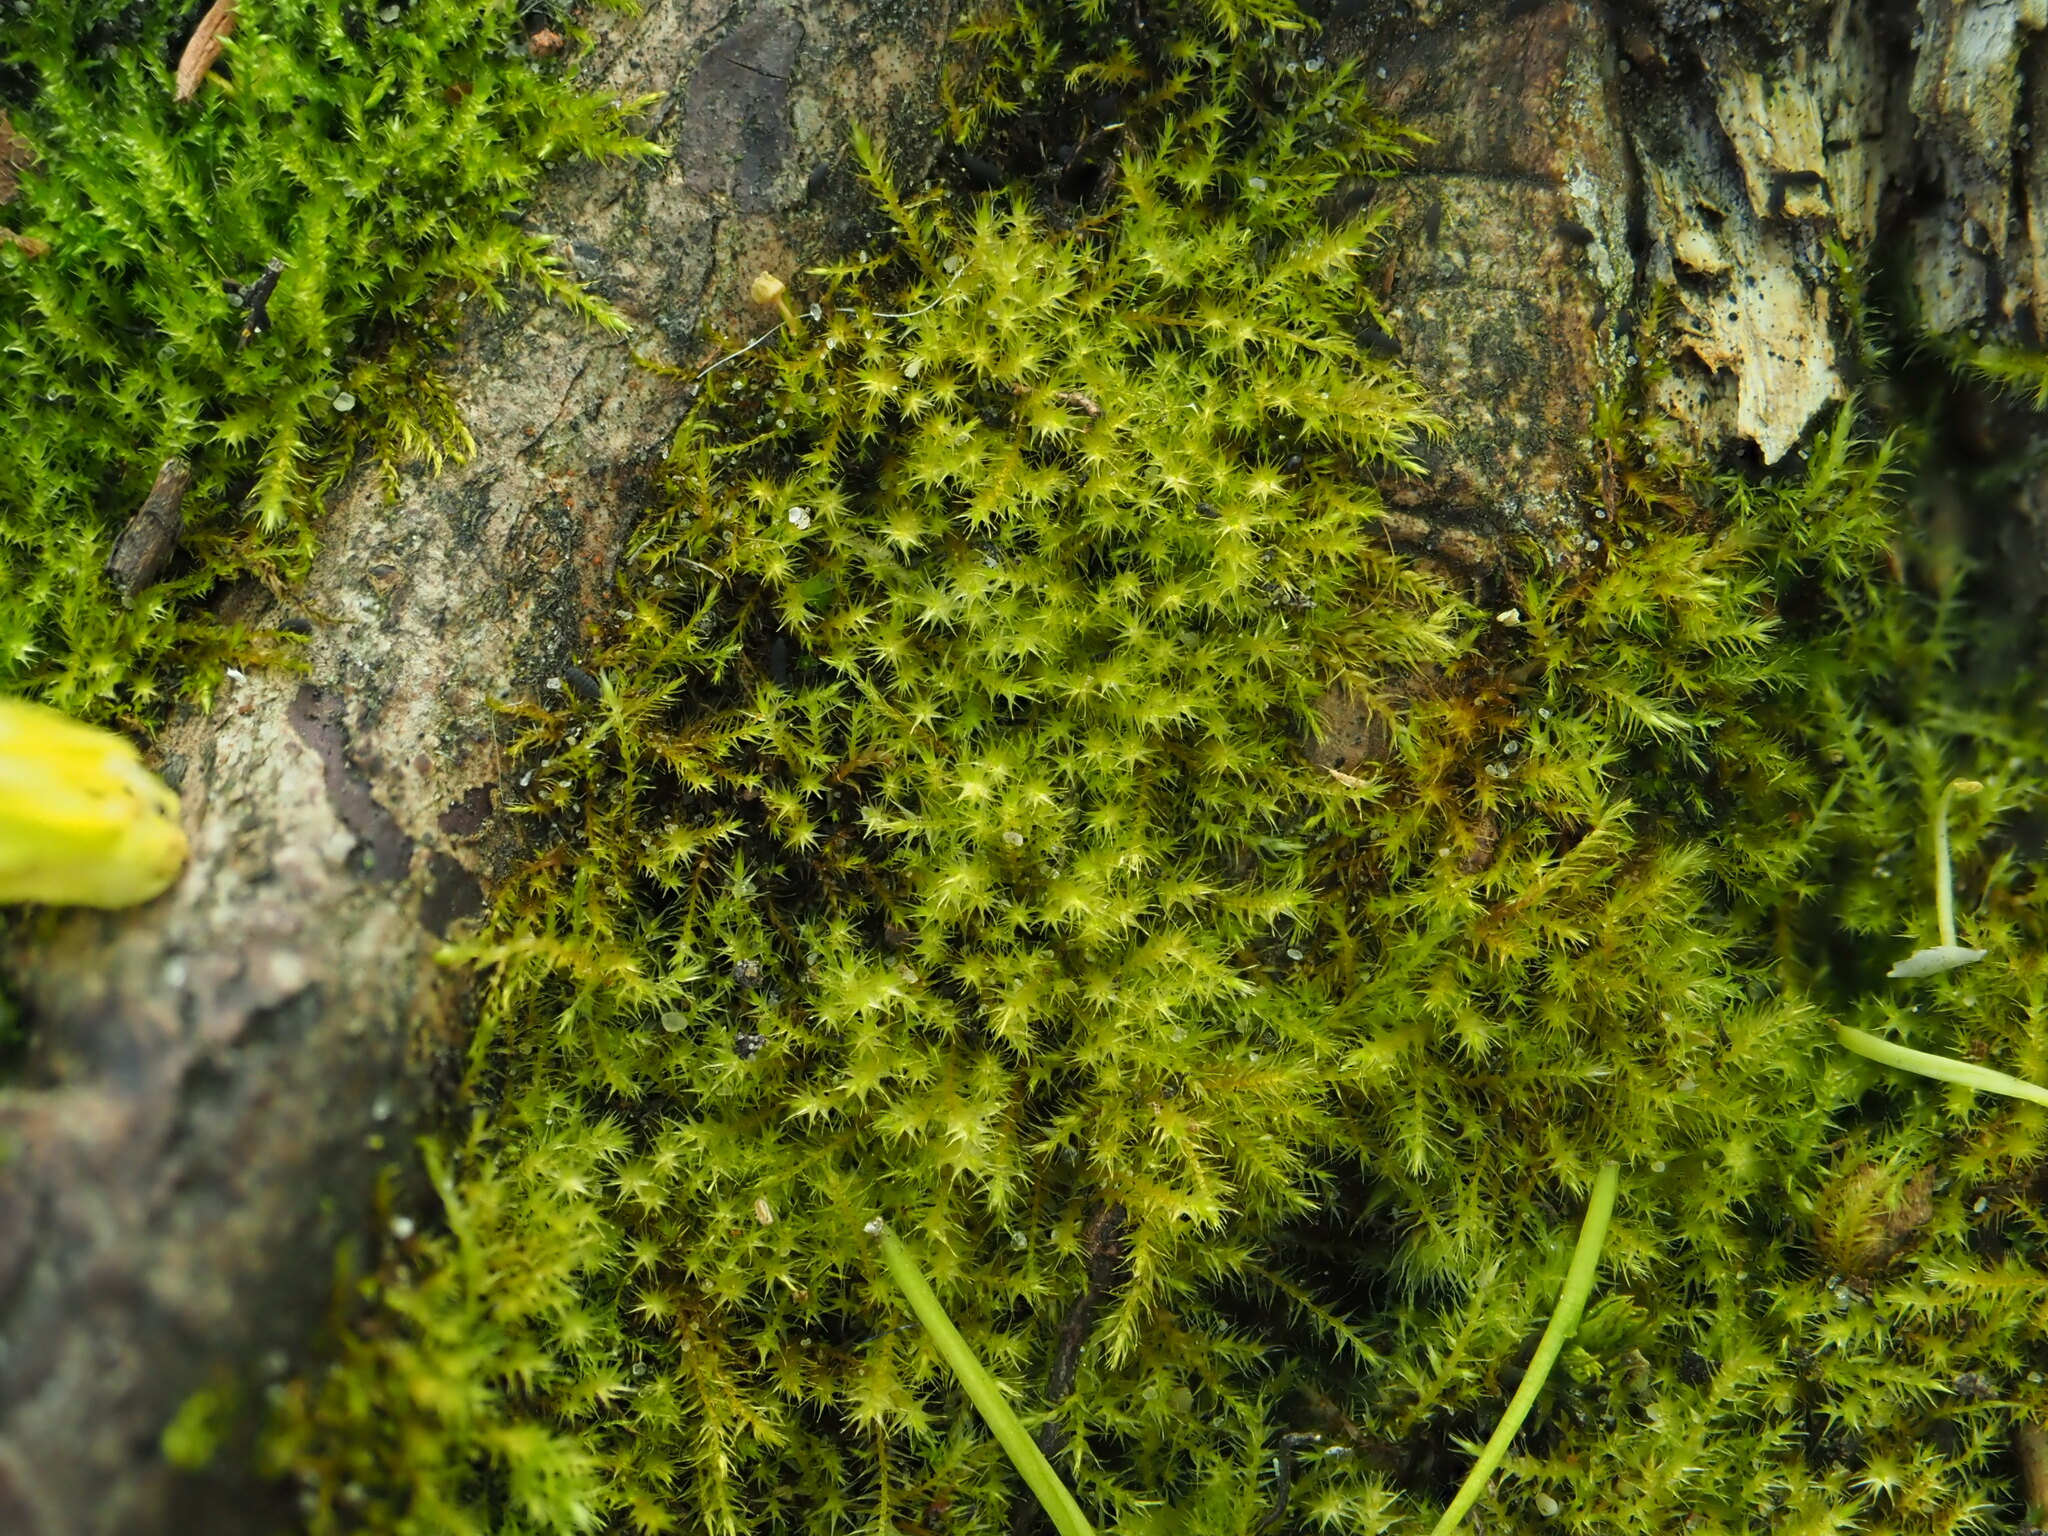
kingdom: Plantae
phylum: Bryophyta
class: Bryopsida
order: Hypnales
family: Amblystegiaceae
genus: Amblystegium
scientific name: Amblystegium serpens
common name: Jurkatzka's feather moss
